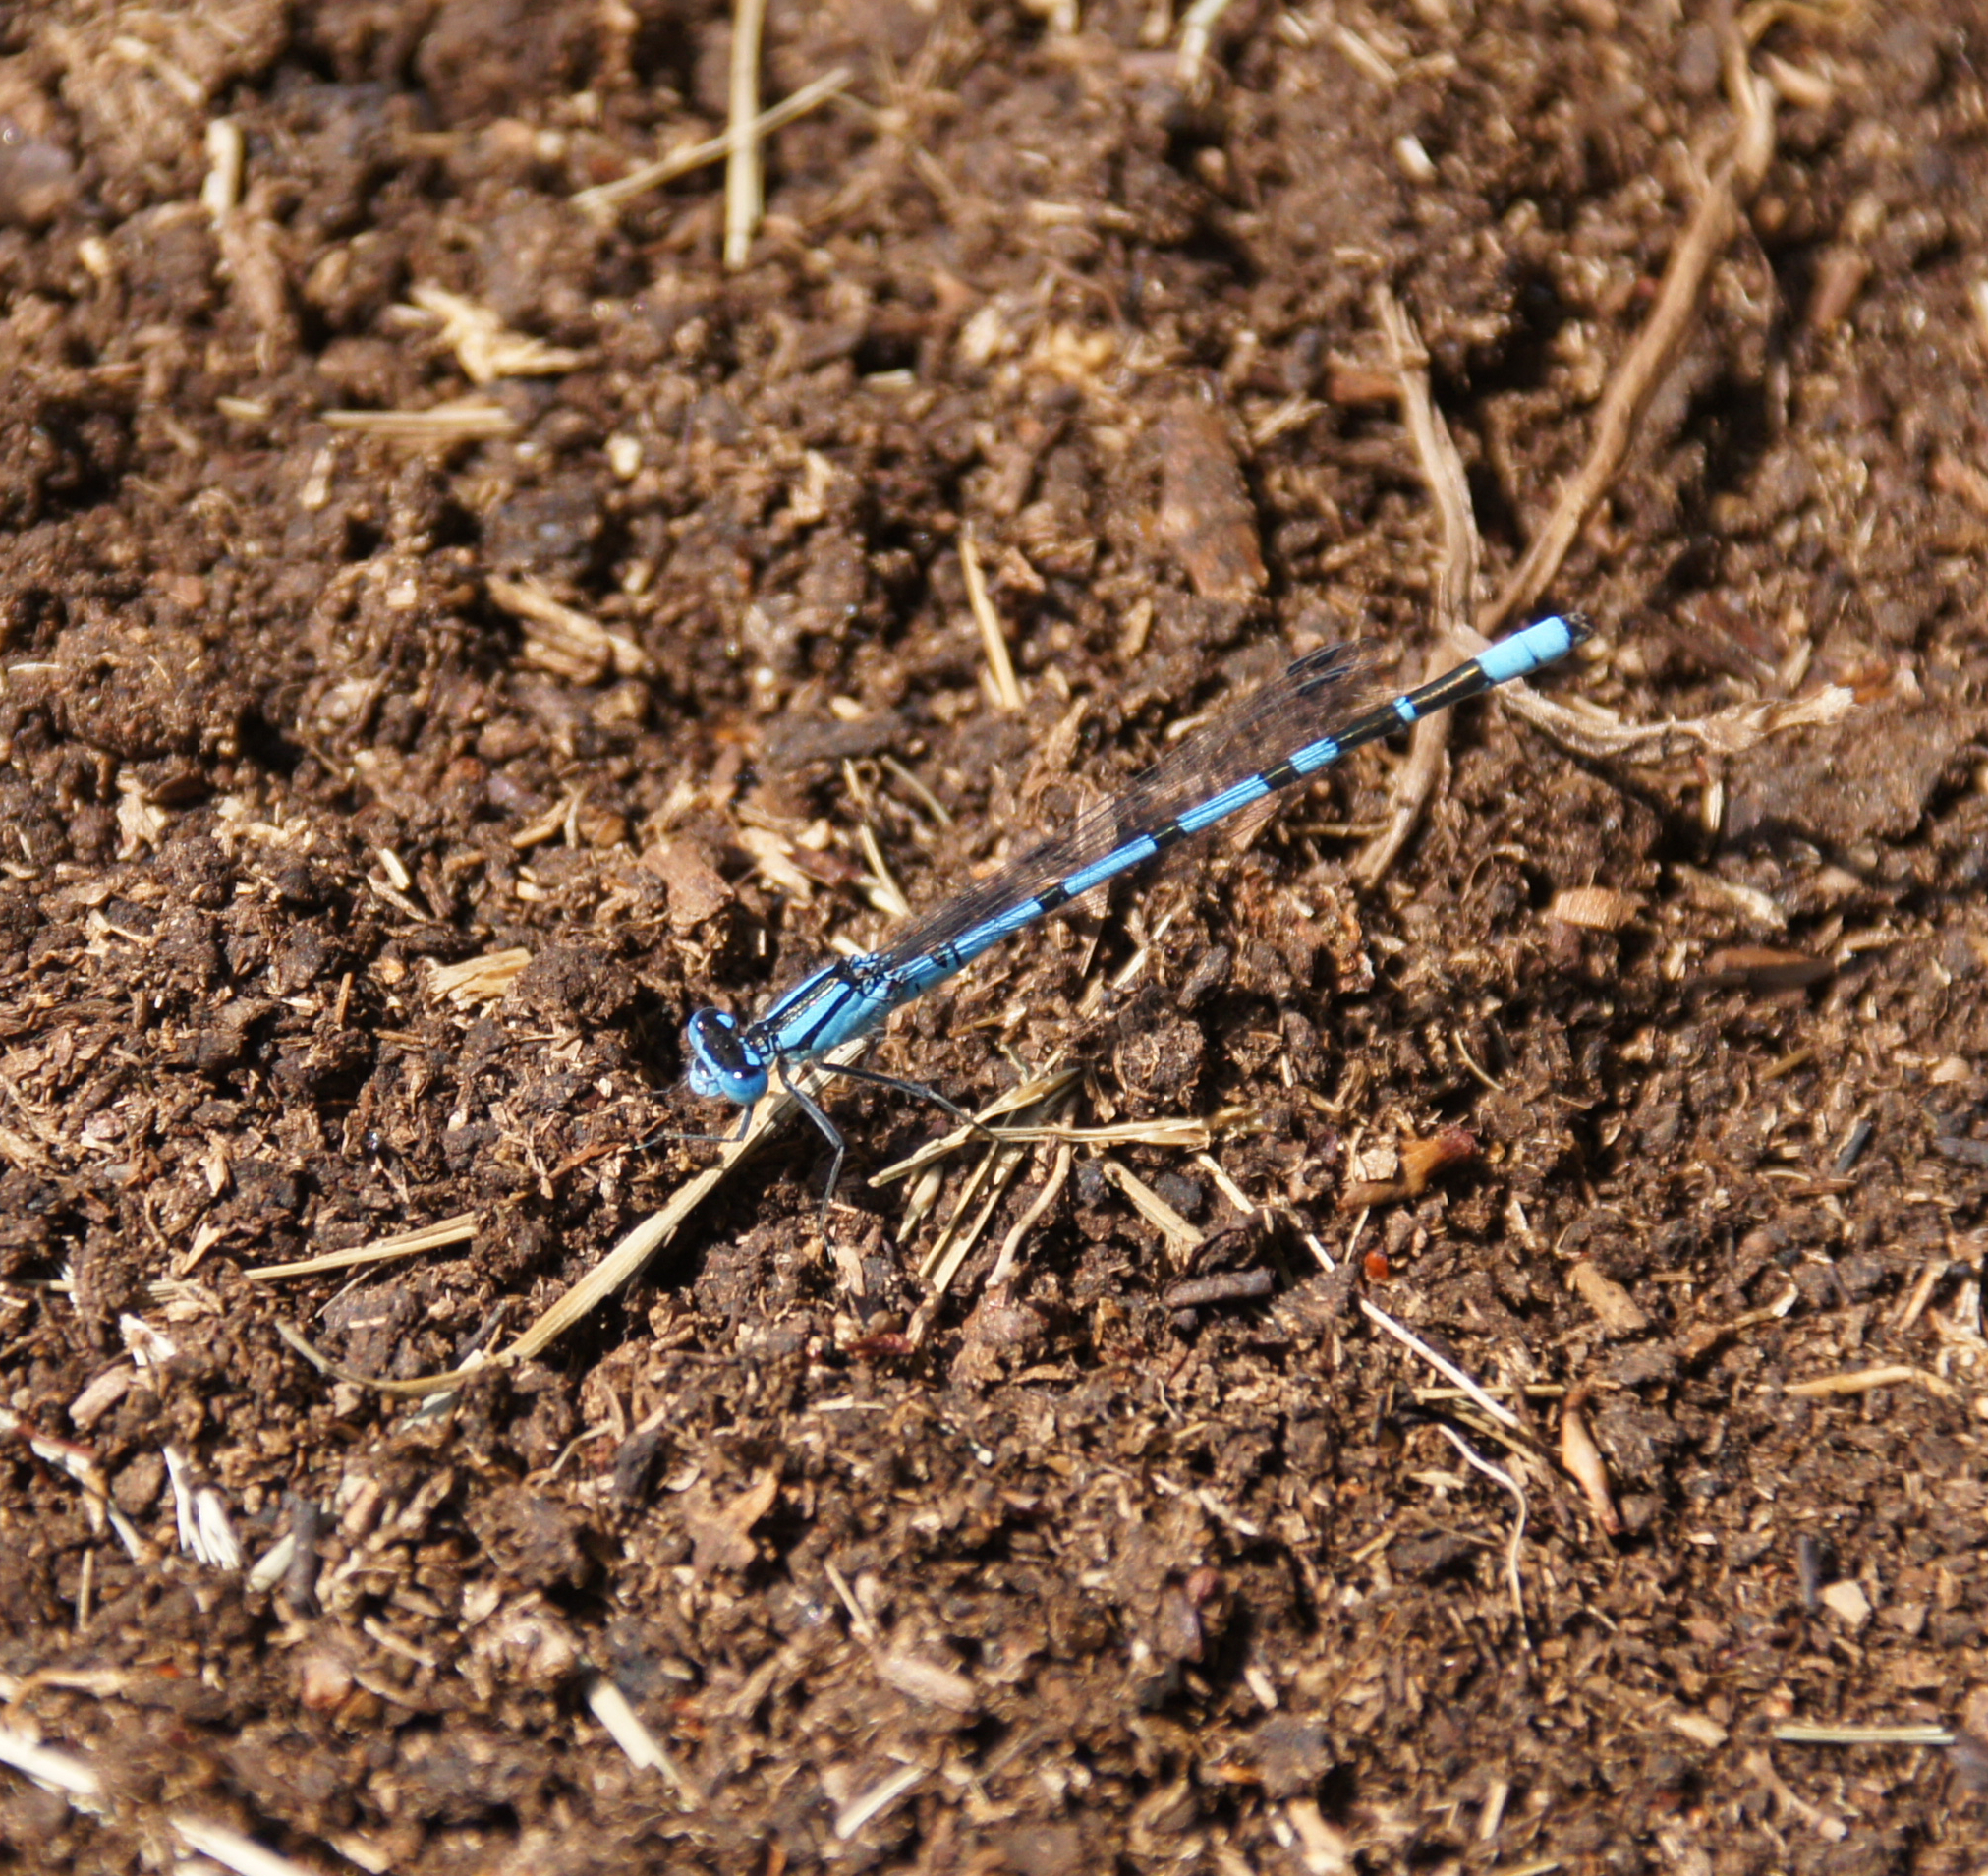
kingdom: Animalia
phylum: Arthropoda
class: Insecta
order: Odonata
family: Coenagrionidae
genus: Enallagma
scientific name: Enallagma cyathigerum
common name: Common blue damselfly
